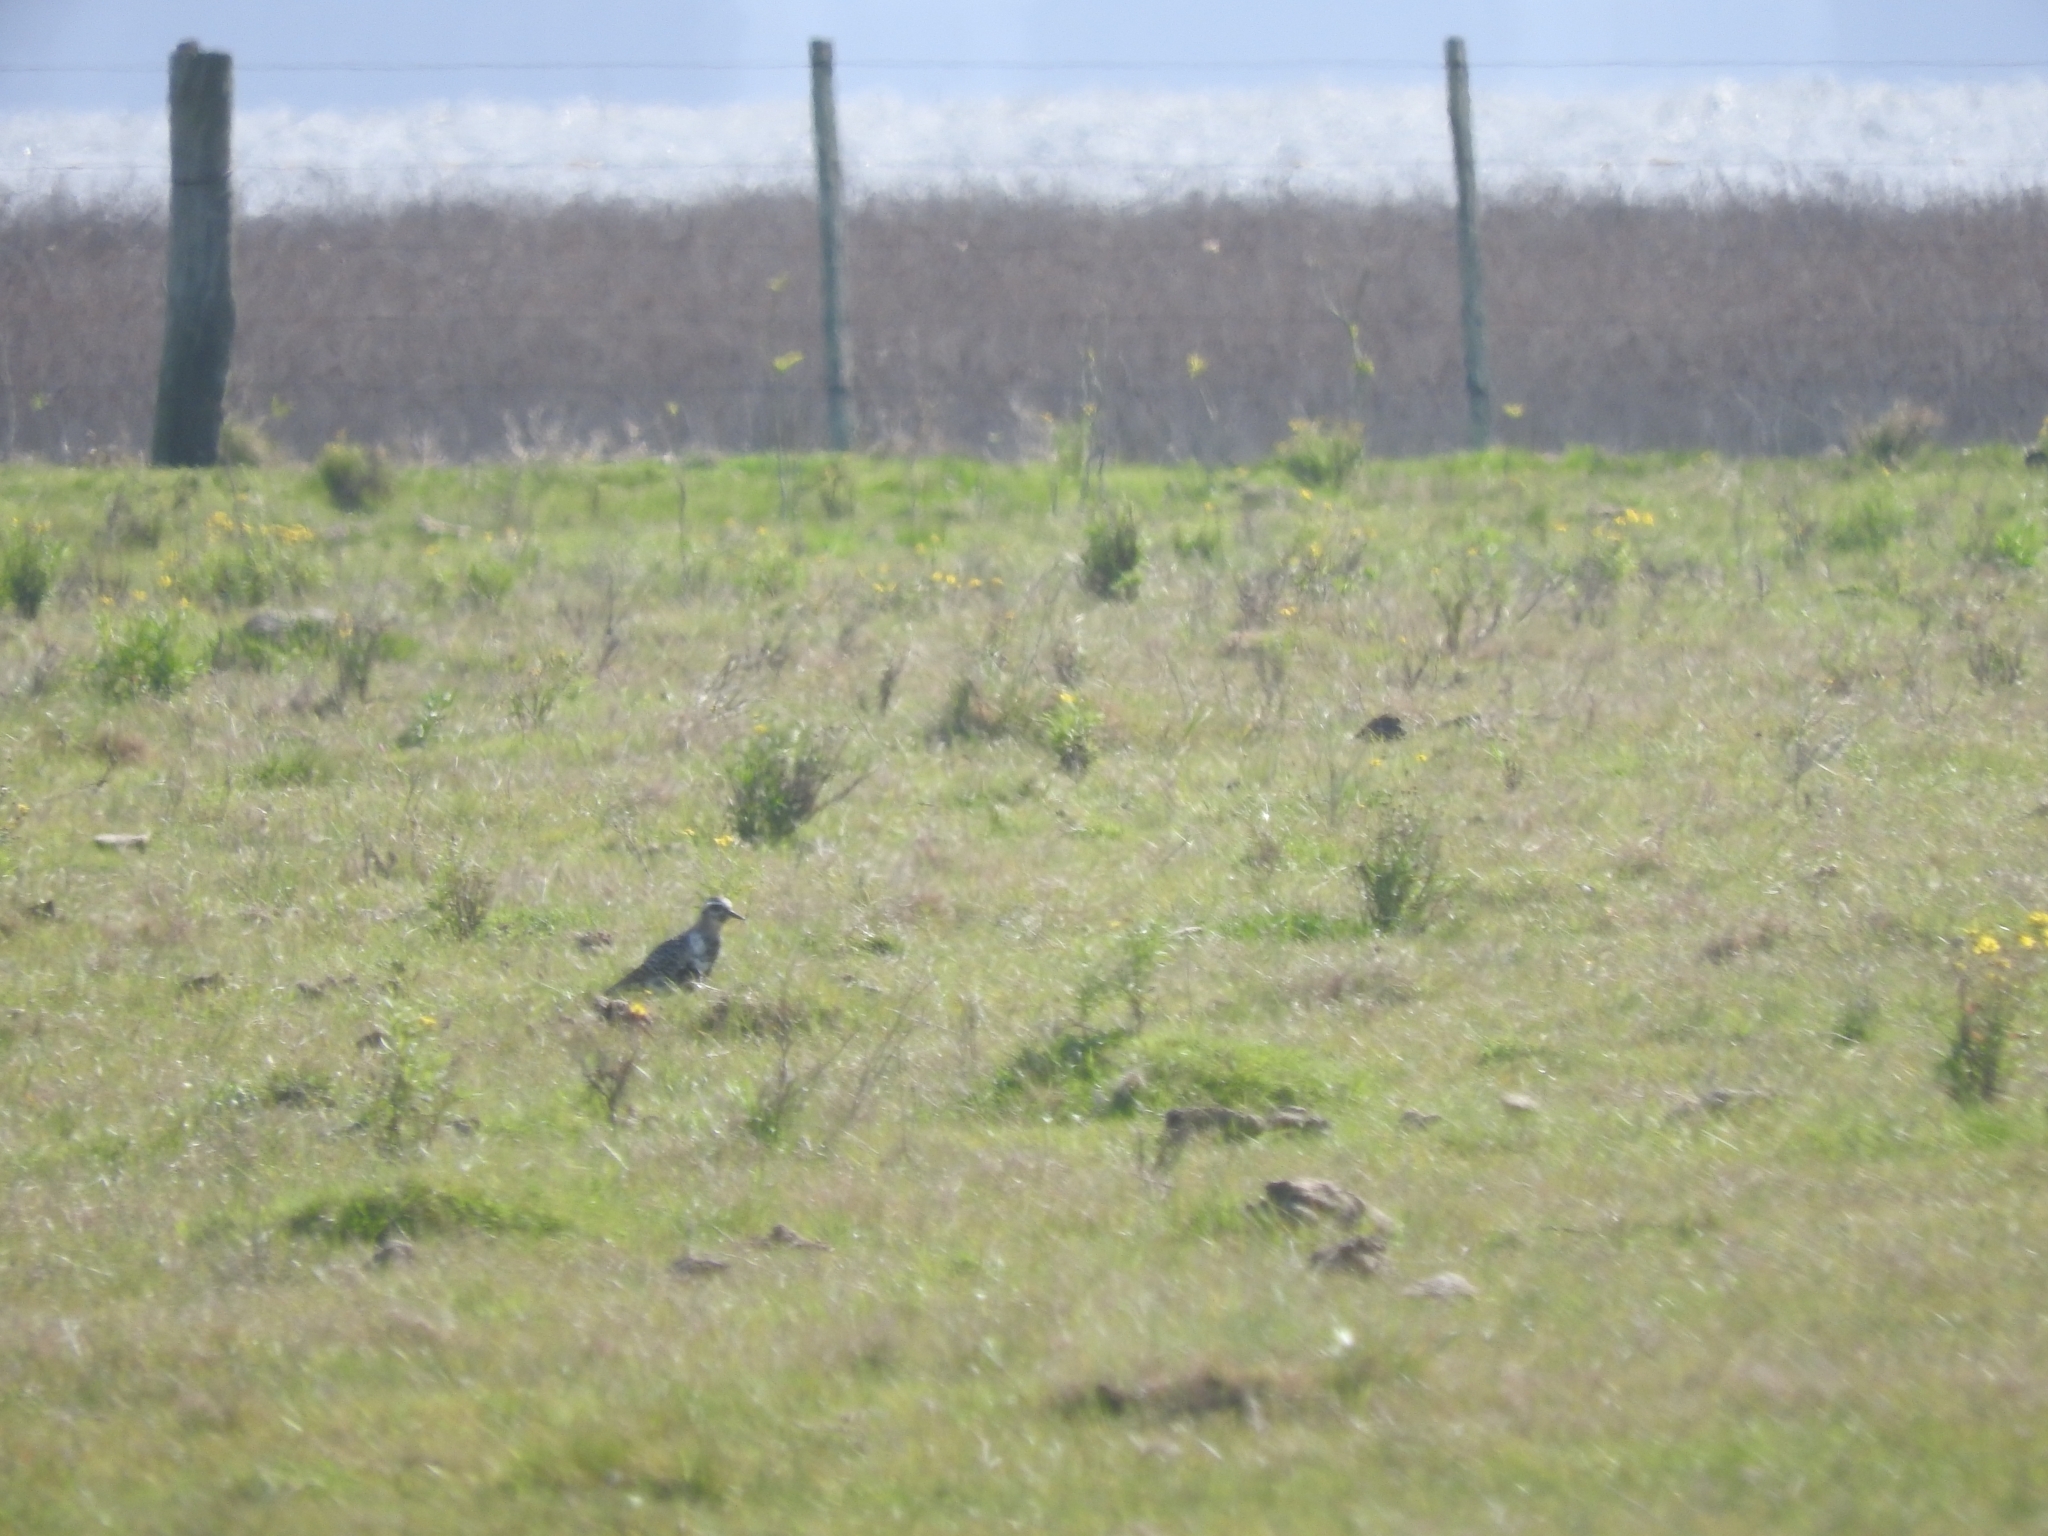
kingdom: Animalia
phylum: Chordata
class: Aves
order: Charadriiformes
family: Charadriidae
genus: Pluvialis
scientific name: Pluvialis dominica
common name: American golden plover
